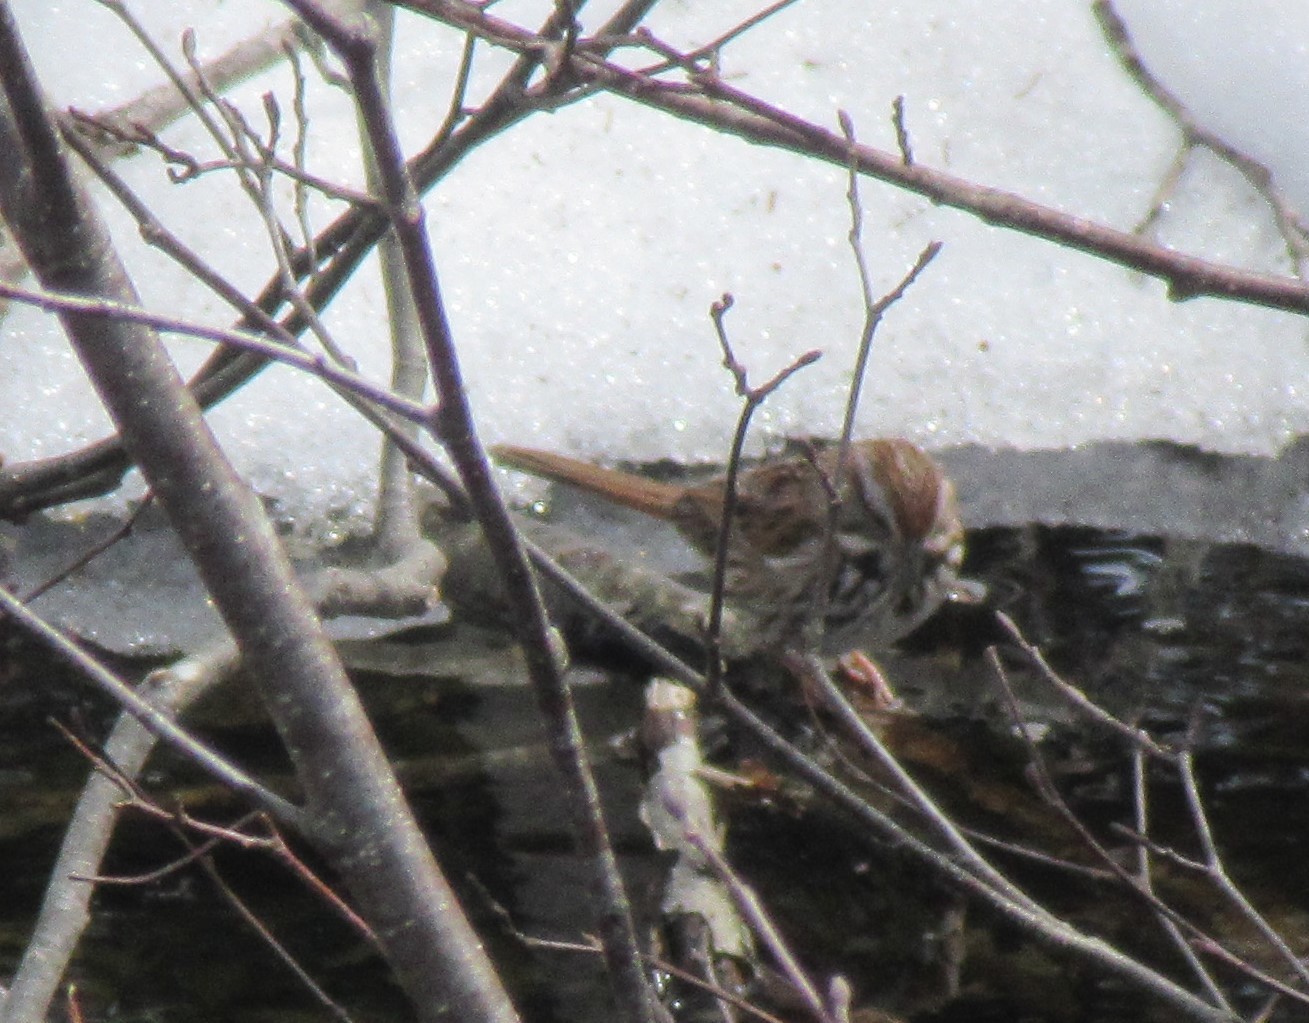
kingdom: Animalia
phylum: Chordata
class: Aves
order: Passeriformes
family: Passerellidae
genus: Melospiza
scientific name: Melospiza melodia
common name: Song sparrow
